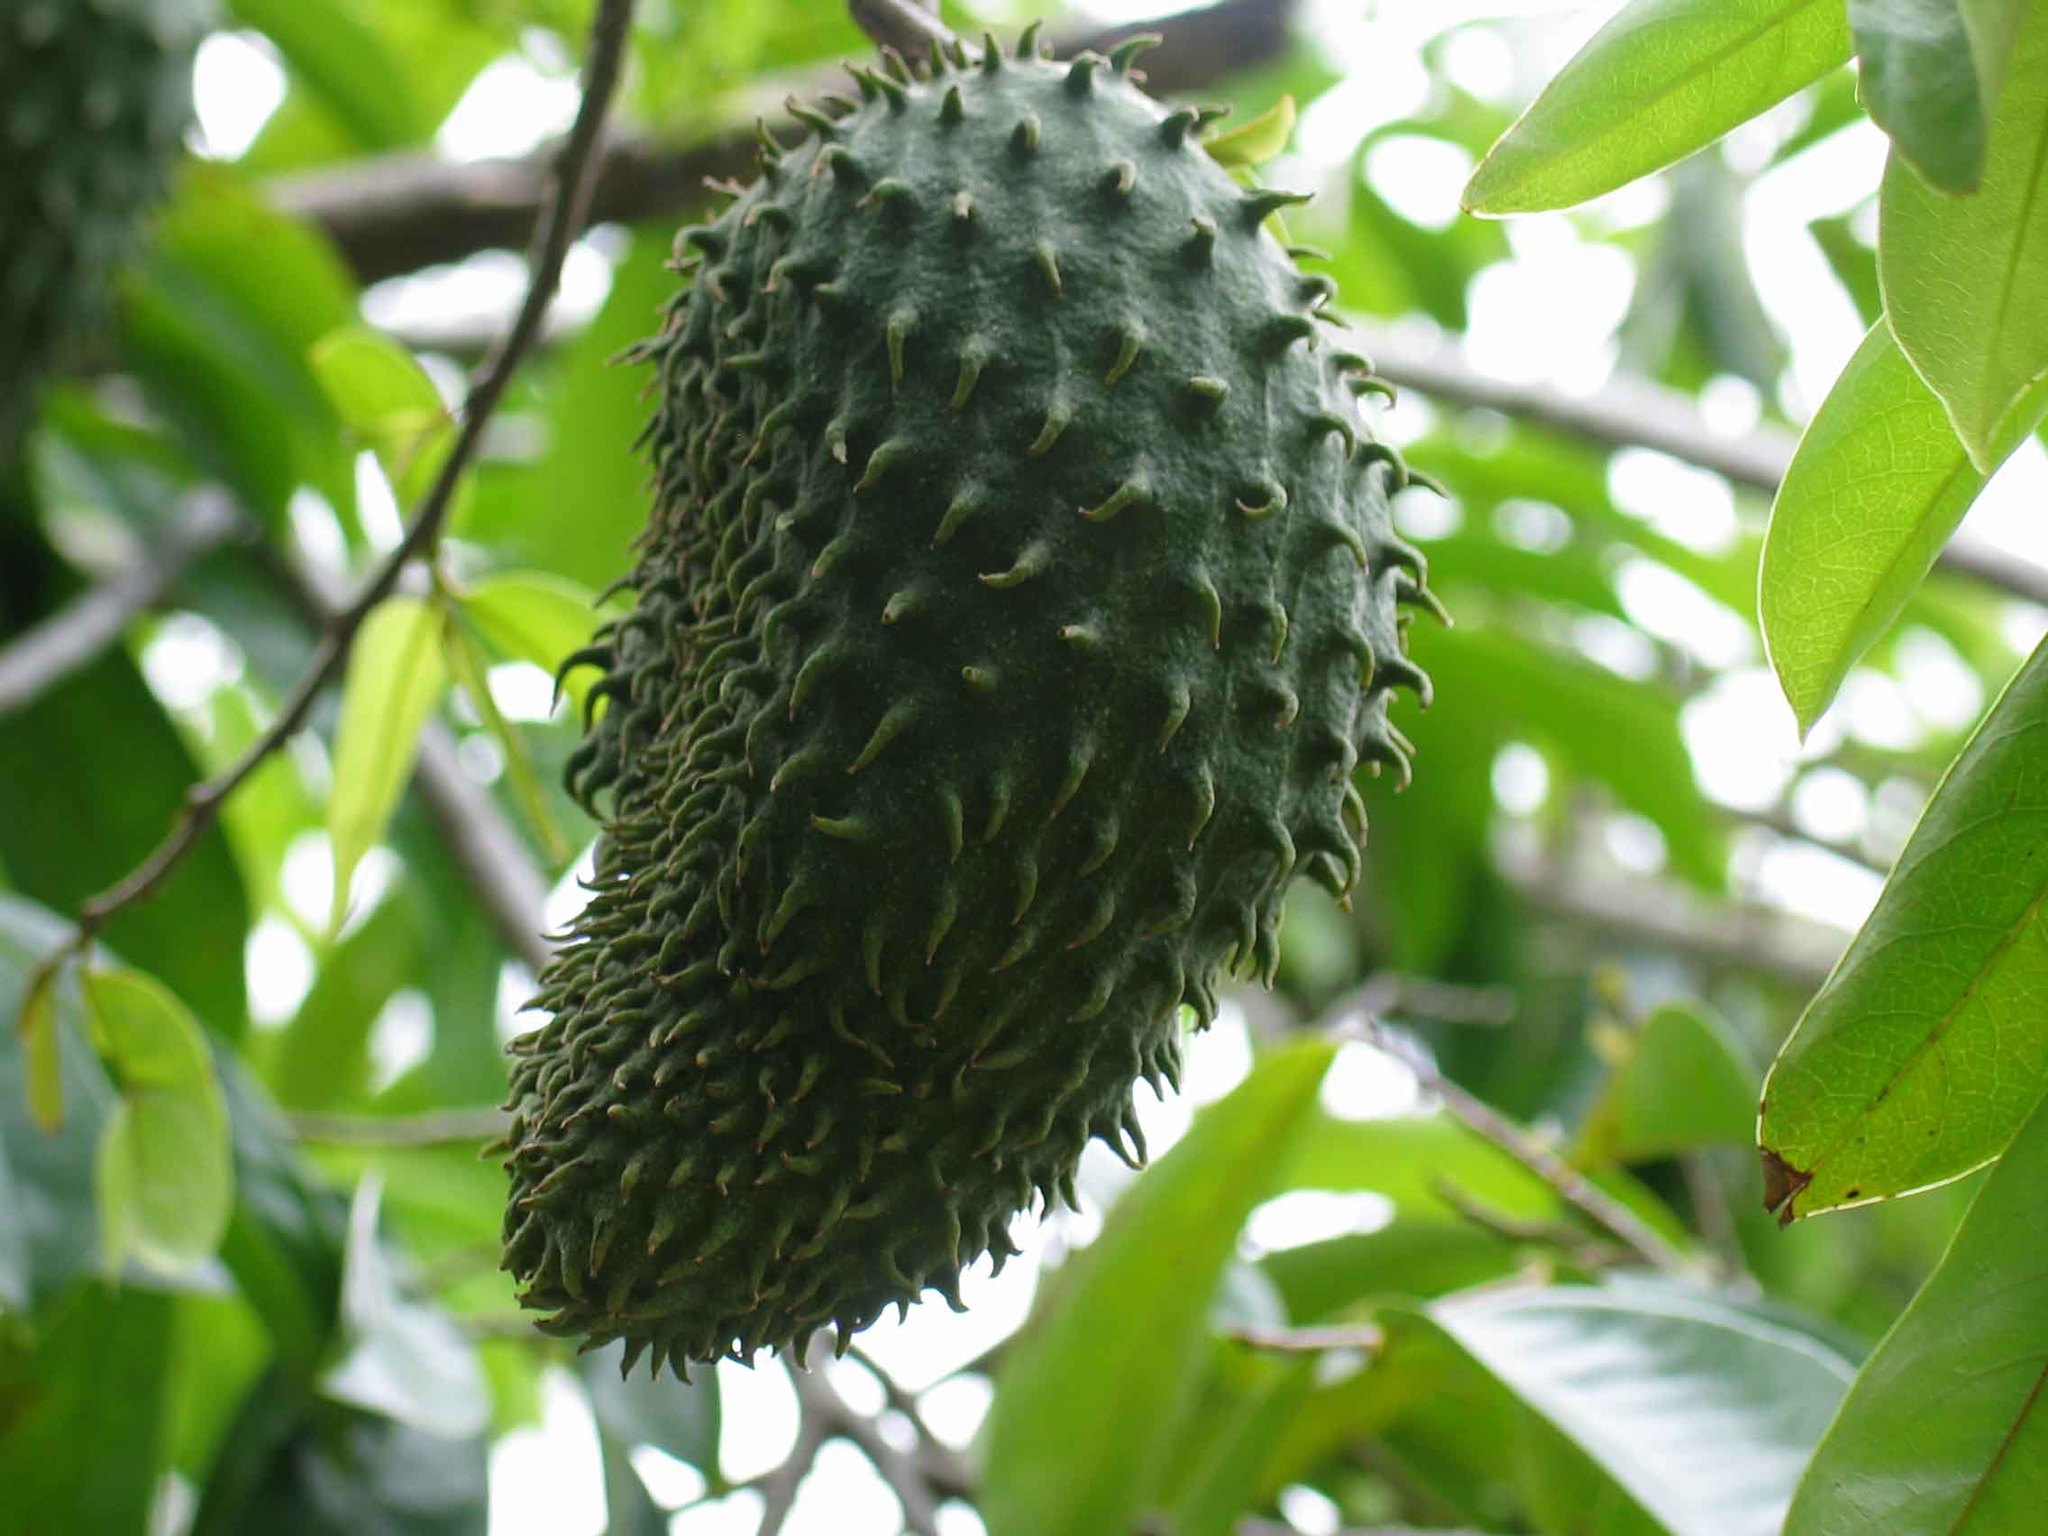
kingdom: Plantae
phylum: Tracheophyta
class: Magnoliopsida
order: Magnoliales
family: Annonaceae
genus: Annona
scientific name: Annona muricata
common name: Soursop
